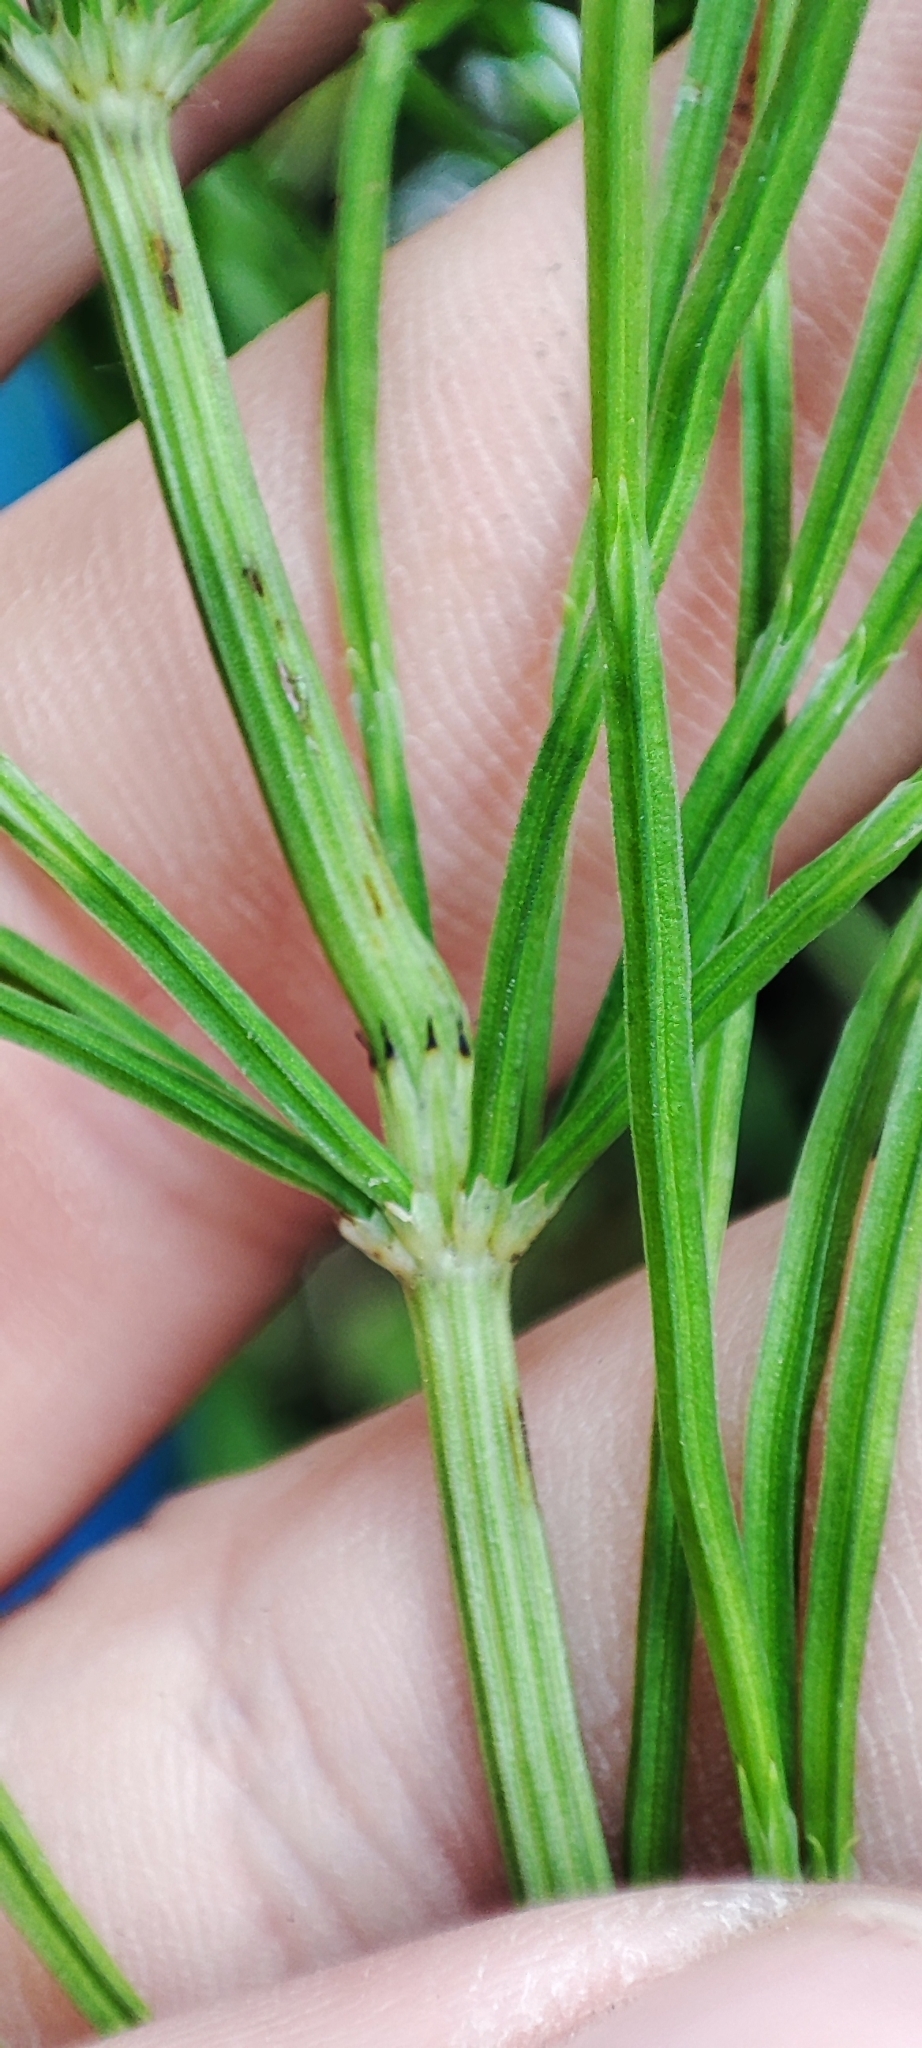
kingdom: Plantae
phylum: Tracheophyta
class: Polypodiopsida
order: Equisetales
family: Equisetaceae
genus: Equisetum
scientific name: Equisetum arvense
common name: Field horsetail
